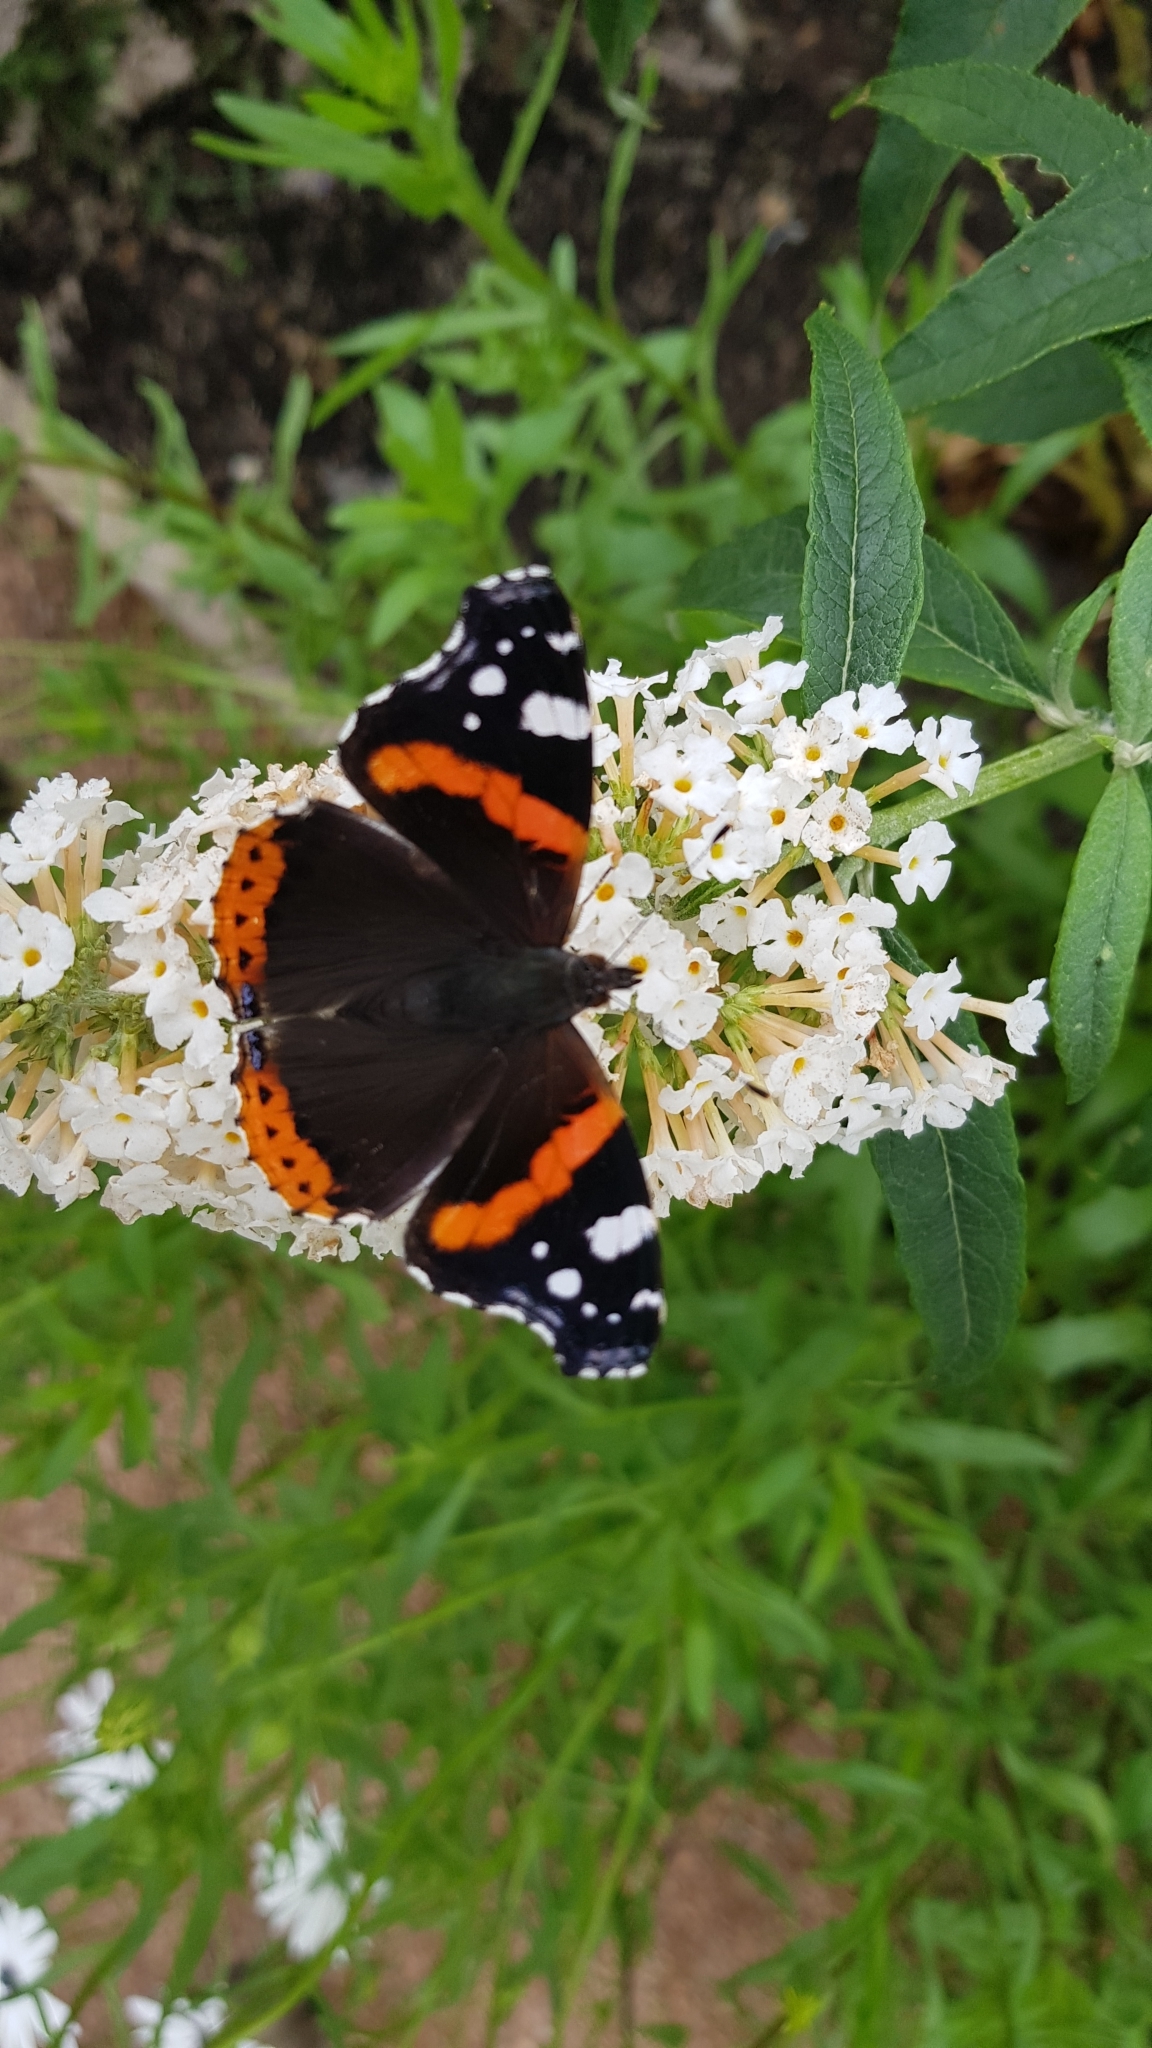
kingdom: Animalia
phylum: Arthropoda
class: Insecta
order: Lepidoptera
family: Nymphalidae
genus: Vanessa
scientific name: Vanessa atalanta
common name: Red admiral
